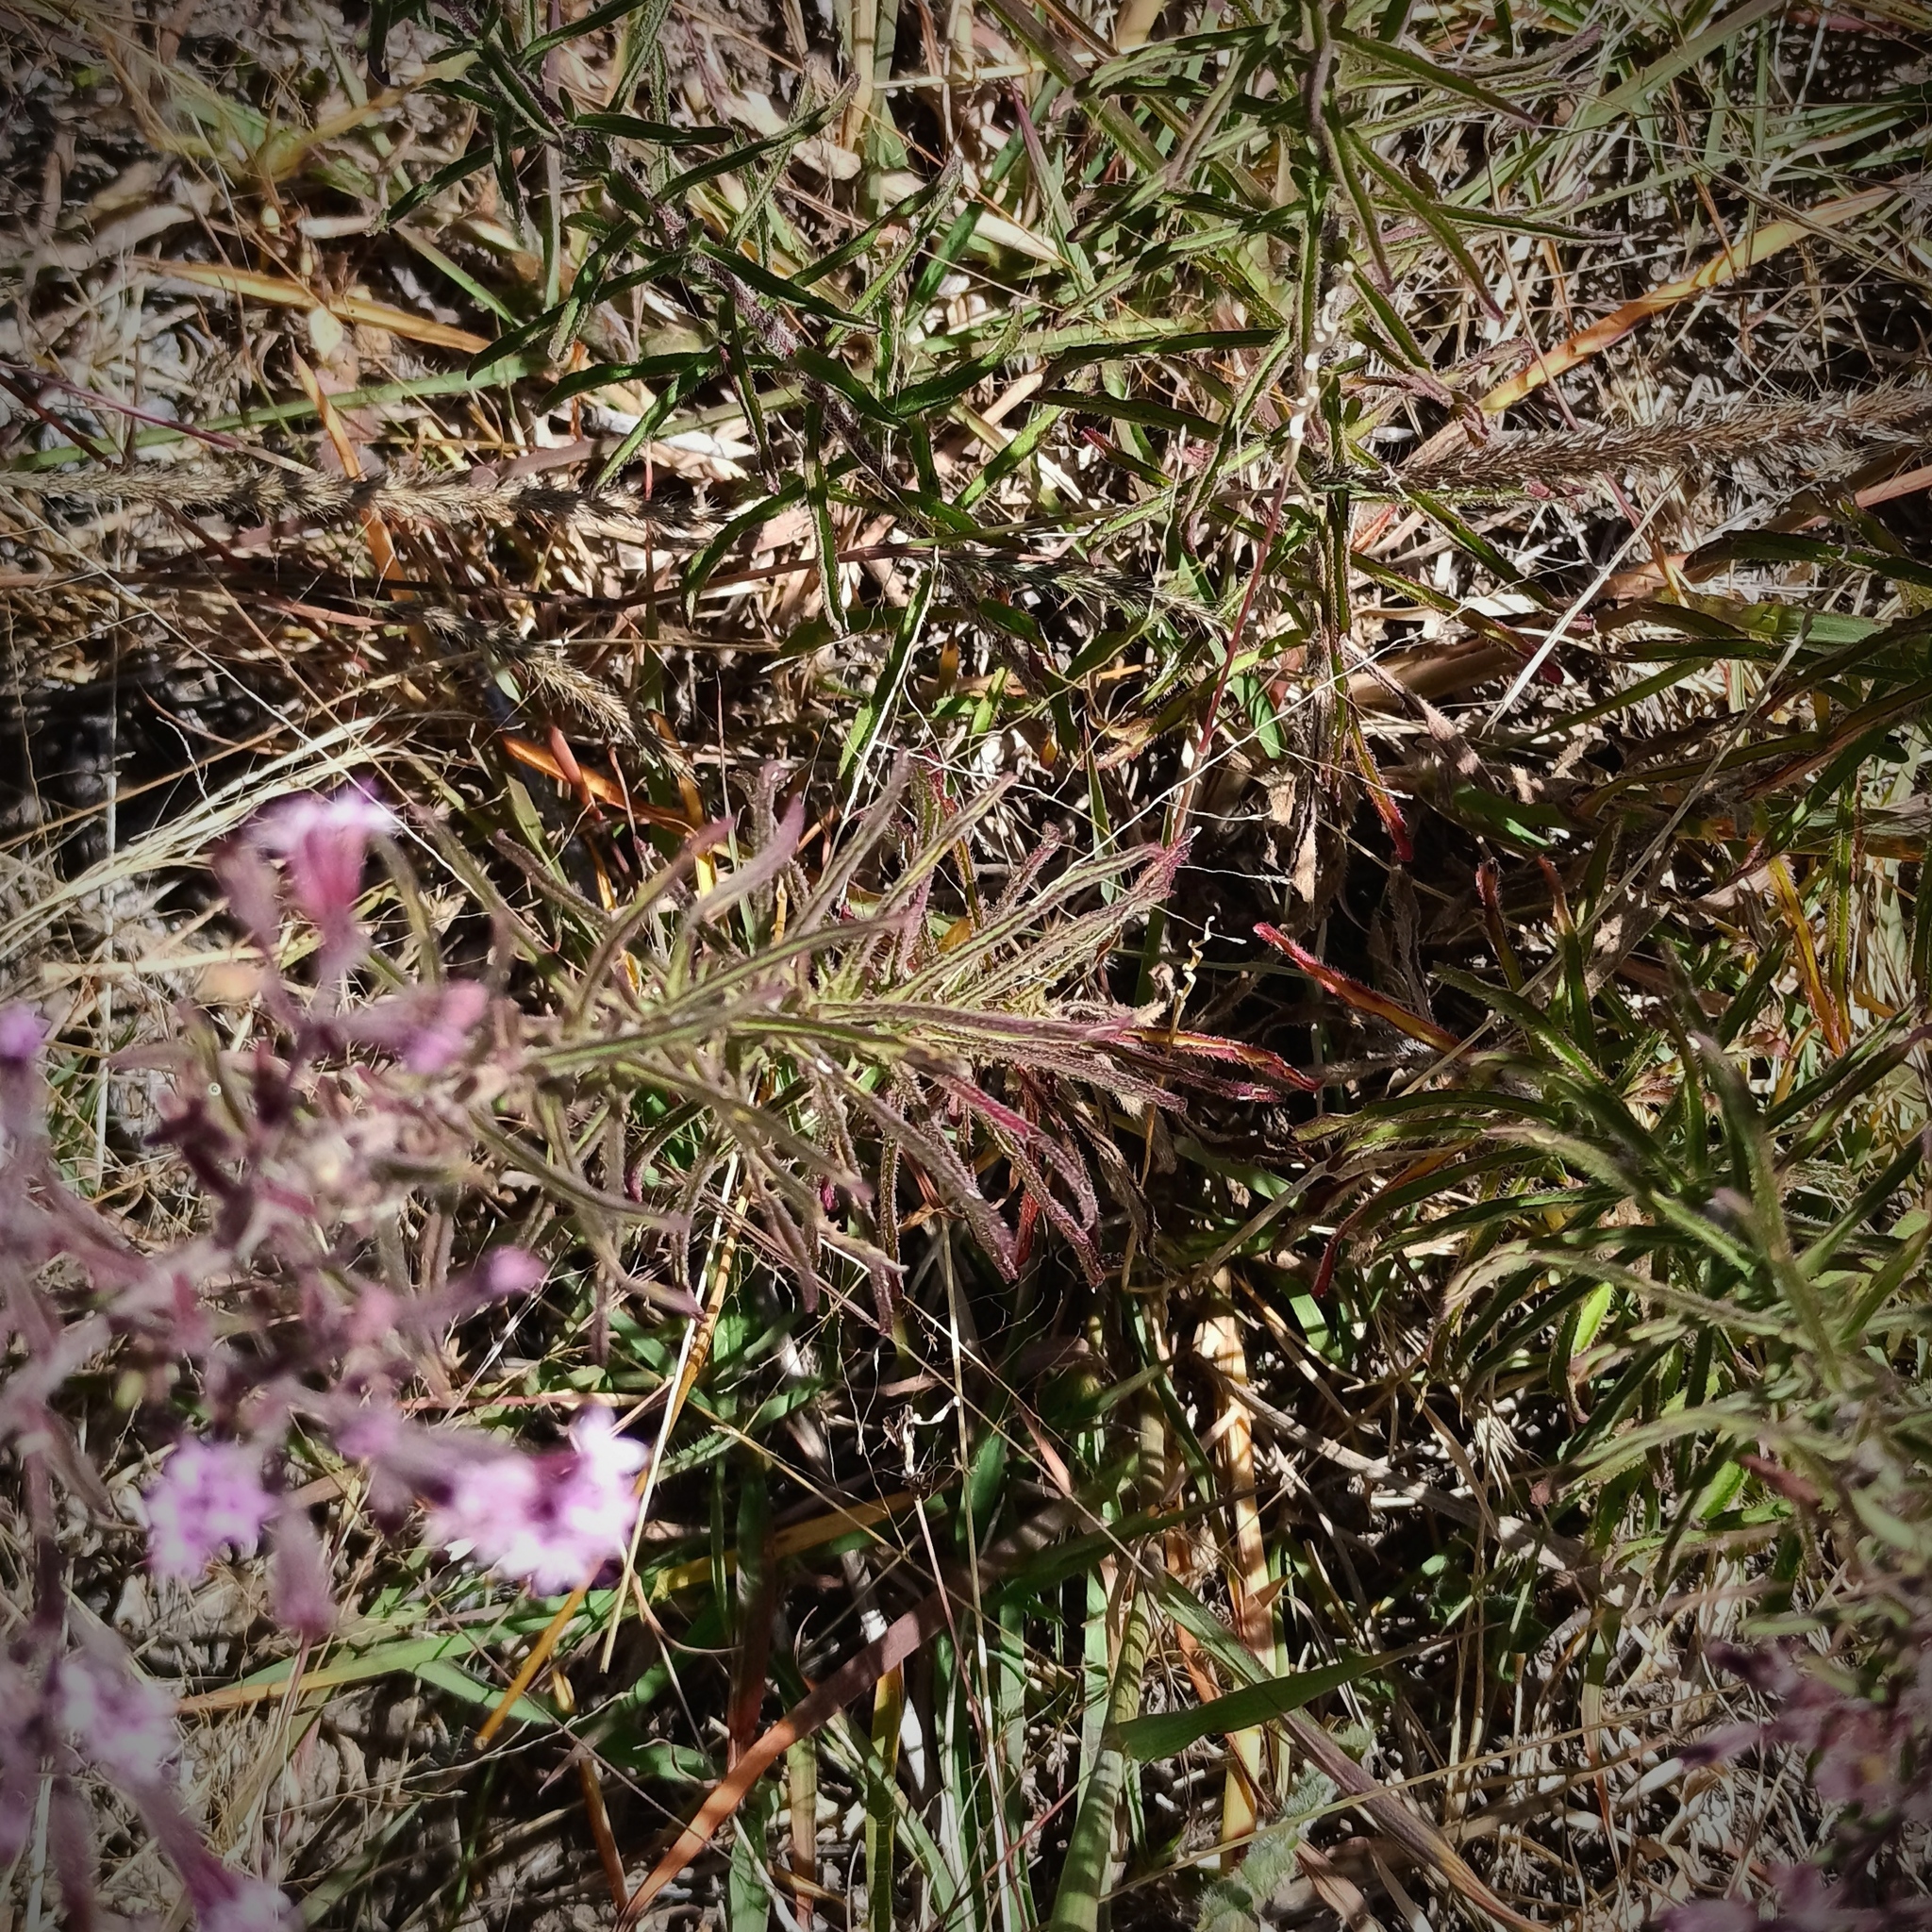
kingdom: Plantae
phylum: Tracheophyta
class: Magnoliopsida
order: Asterales
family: Asteraceae
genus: Stevia
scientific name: Stevia viscida
